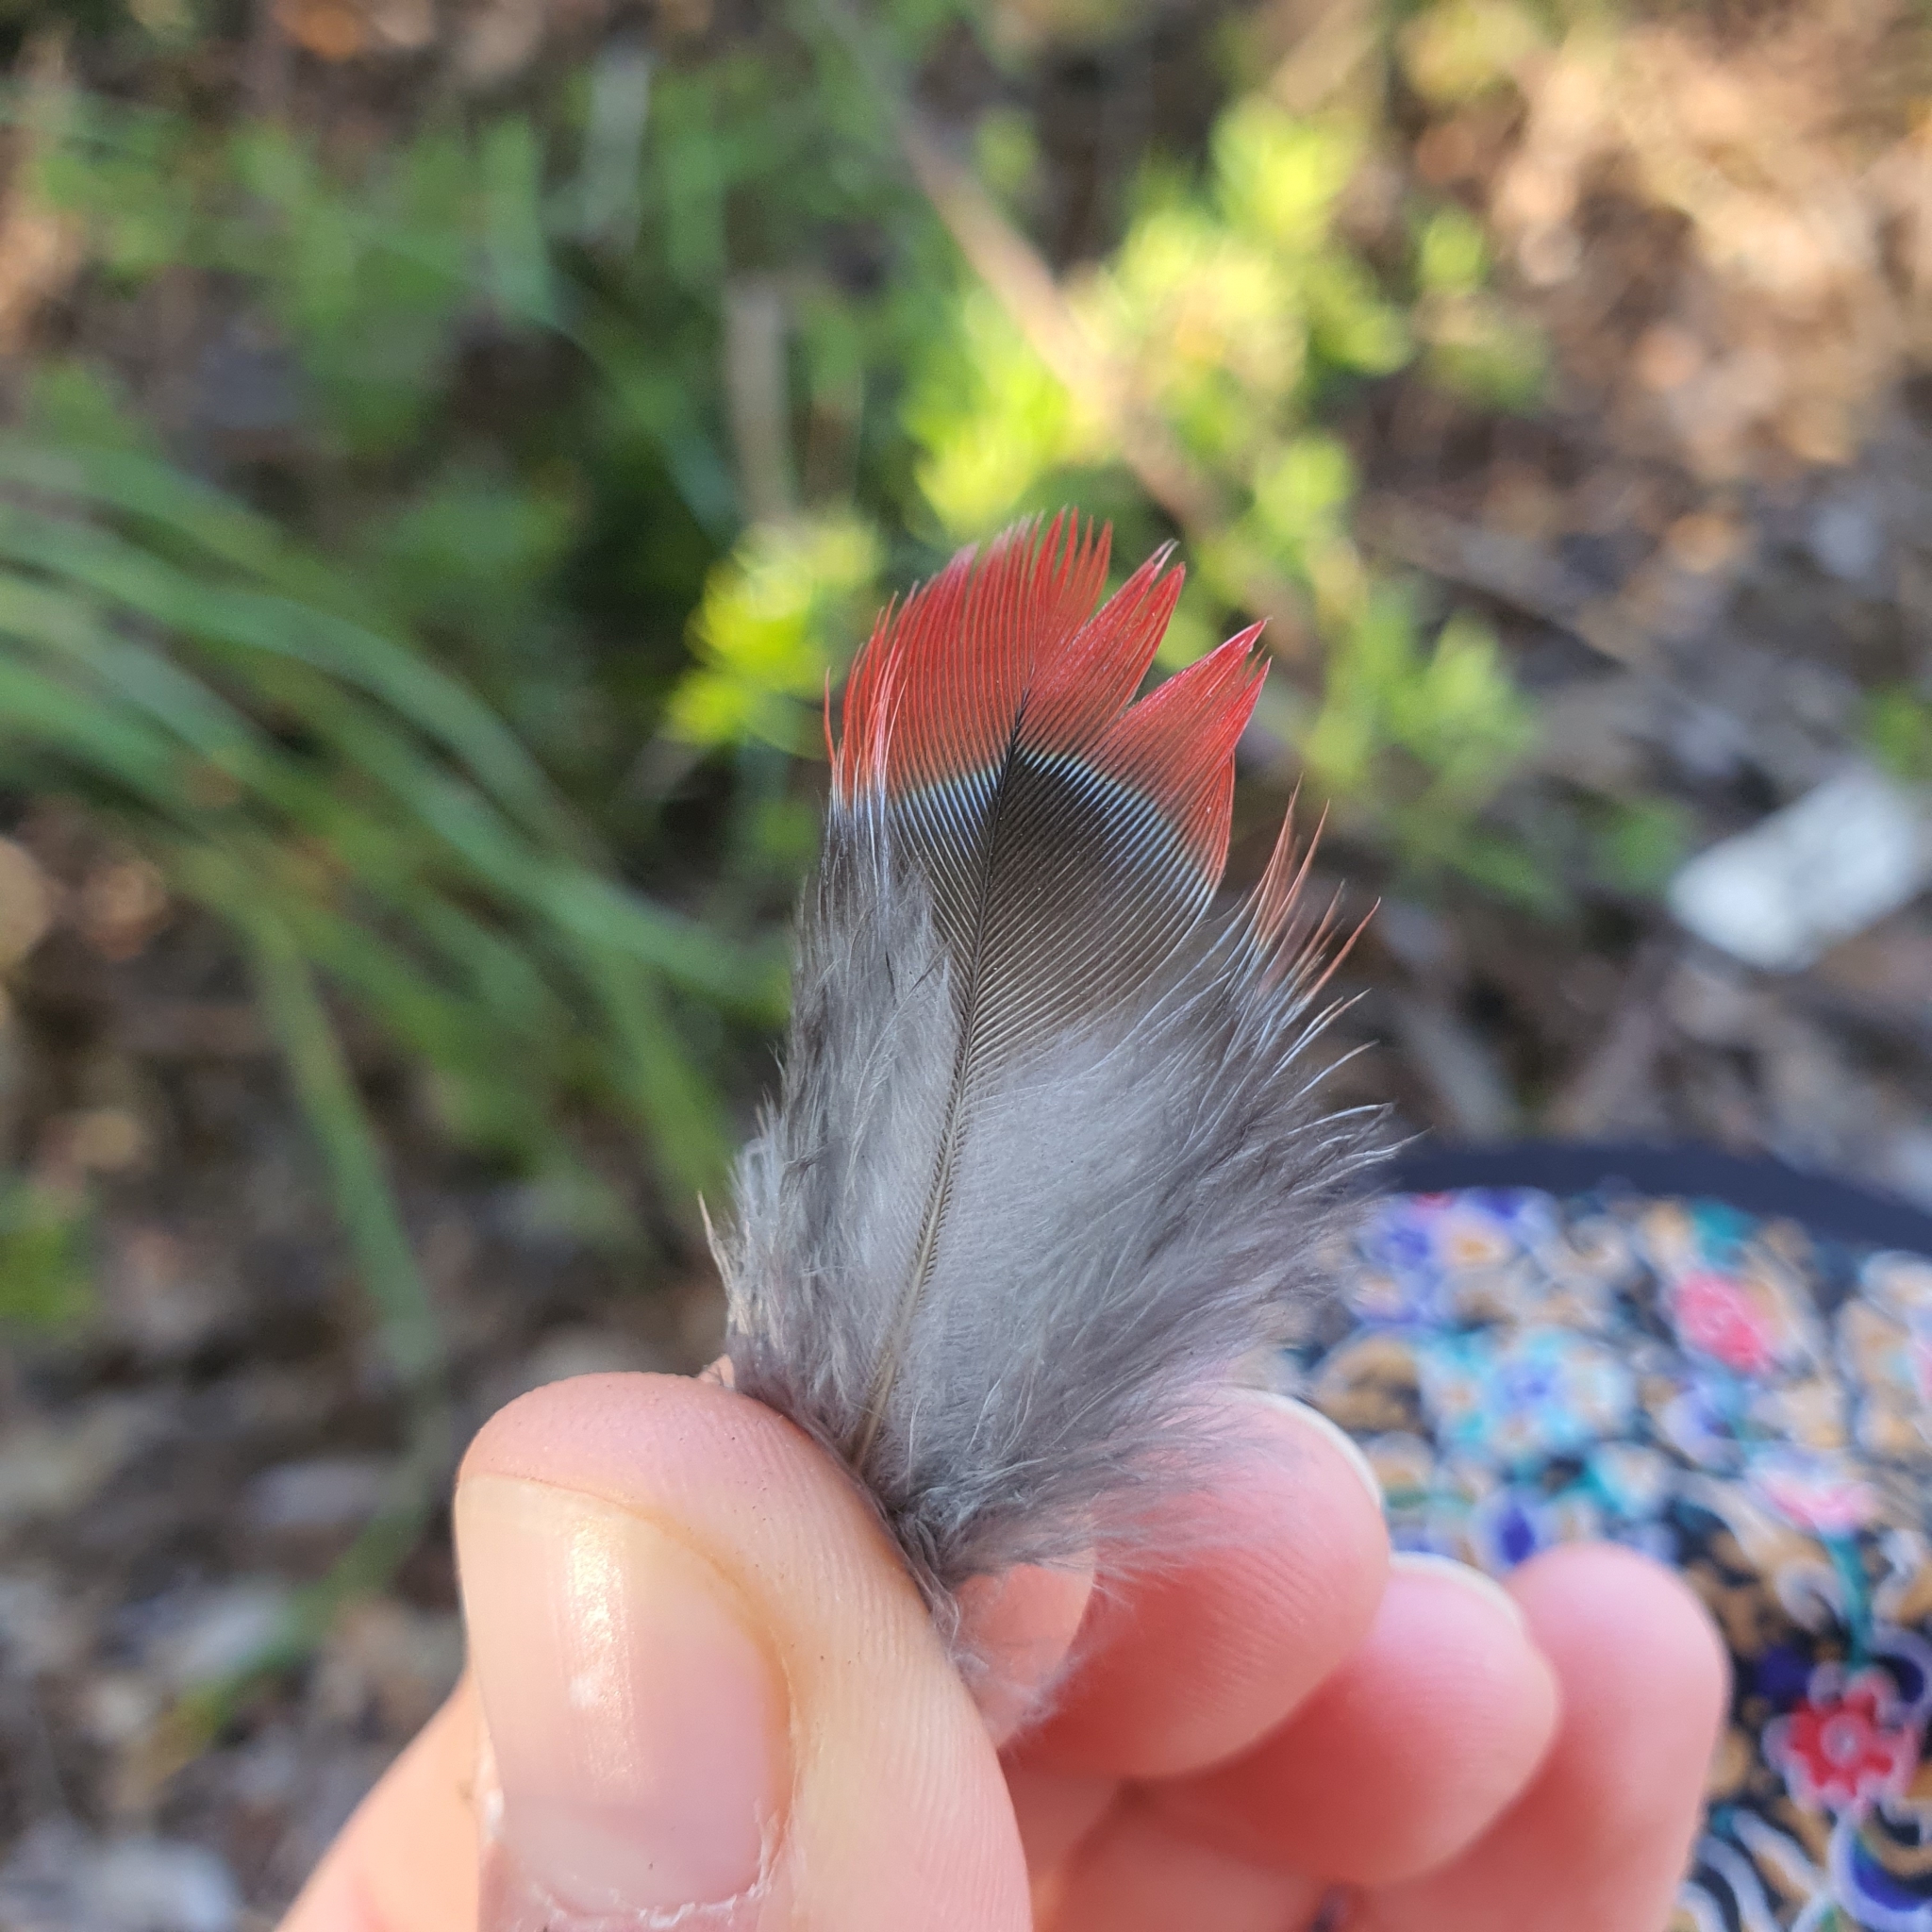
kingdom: Animalia
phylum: Chordata
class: Aves
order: Psittaciformes
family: Psittacidae
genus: Platycercus
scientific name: Platycercus elegans
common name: Crimson rosella
